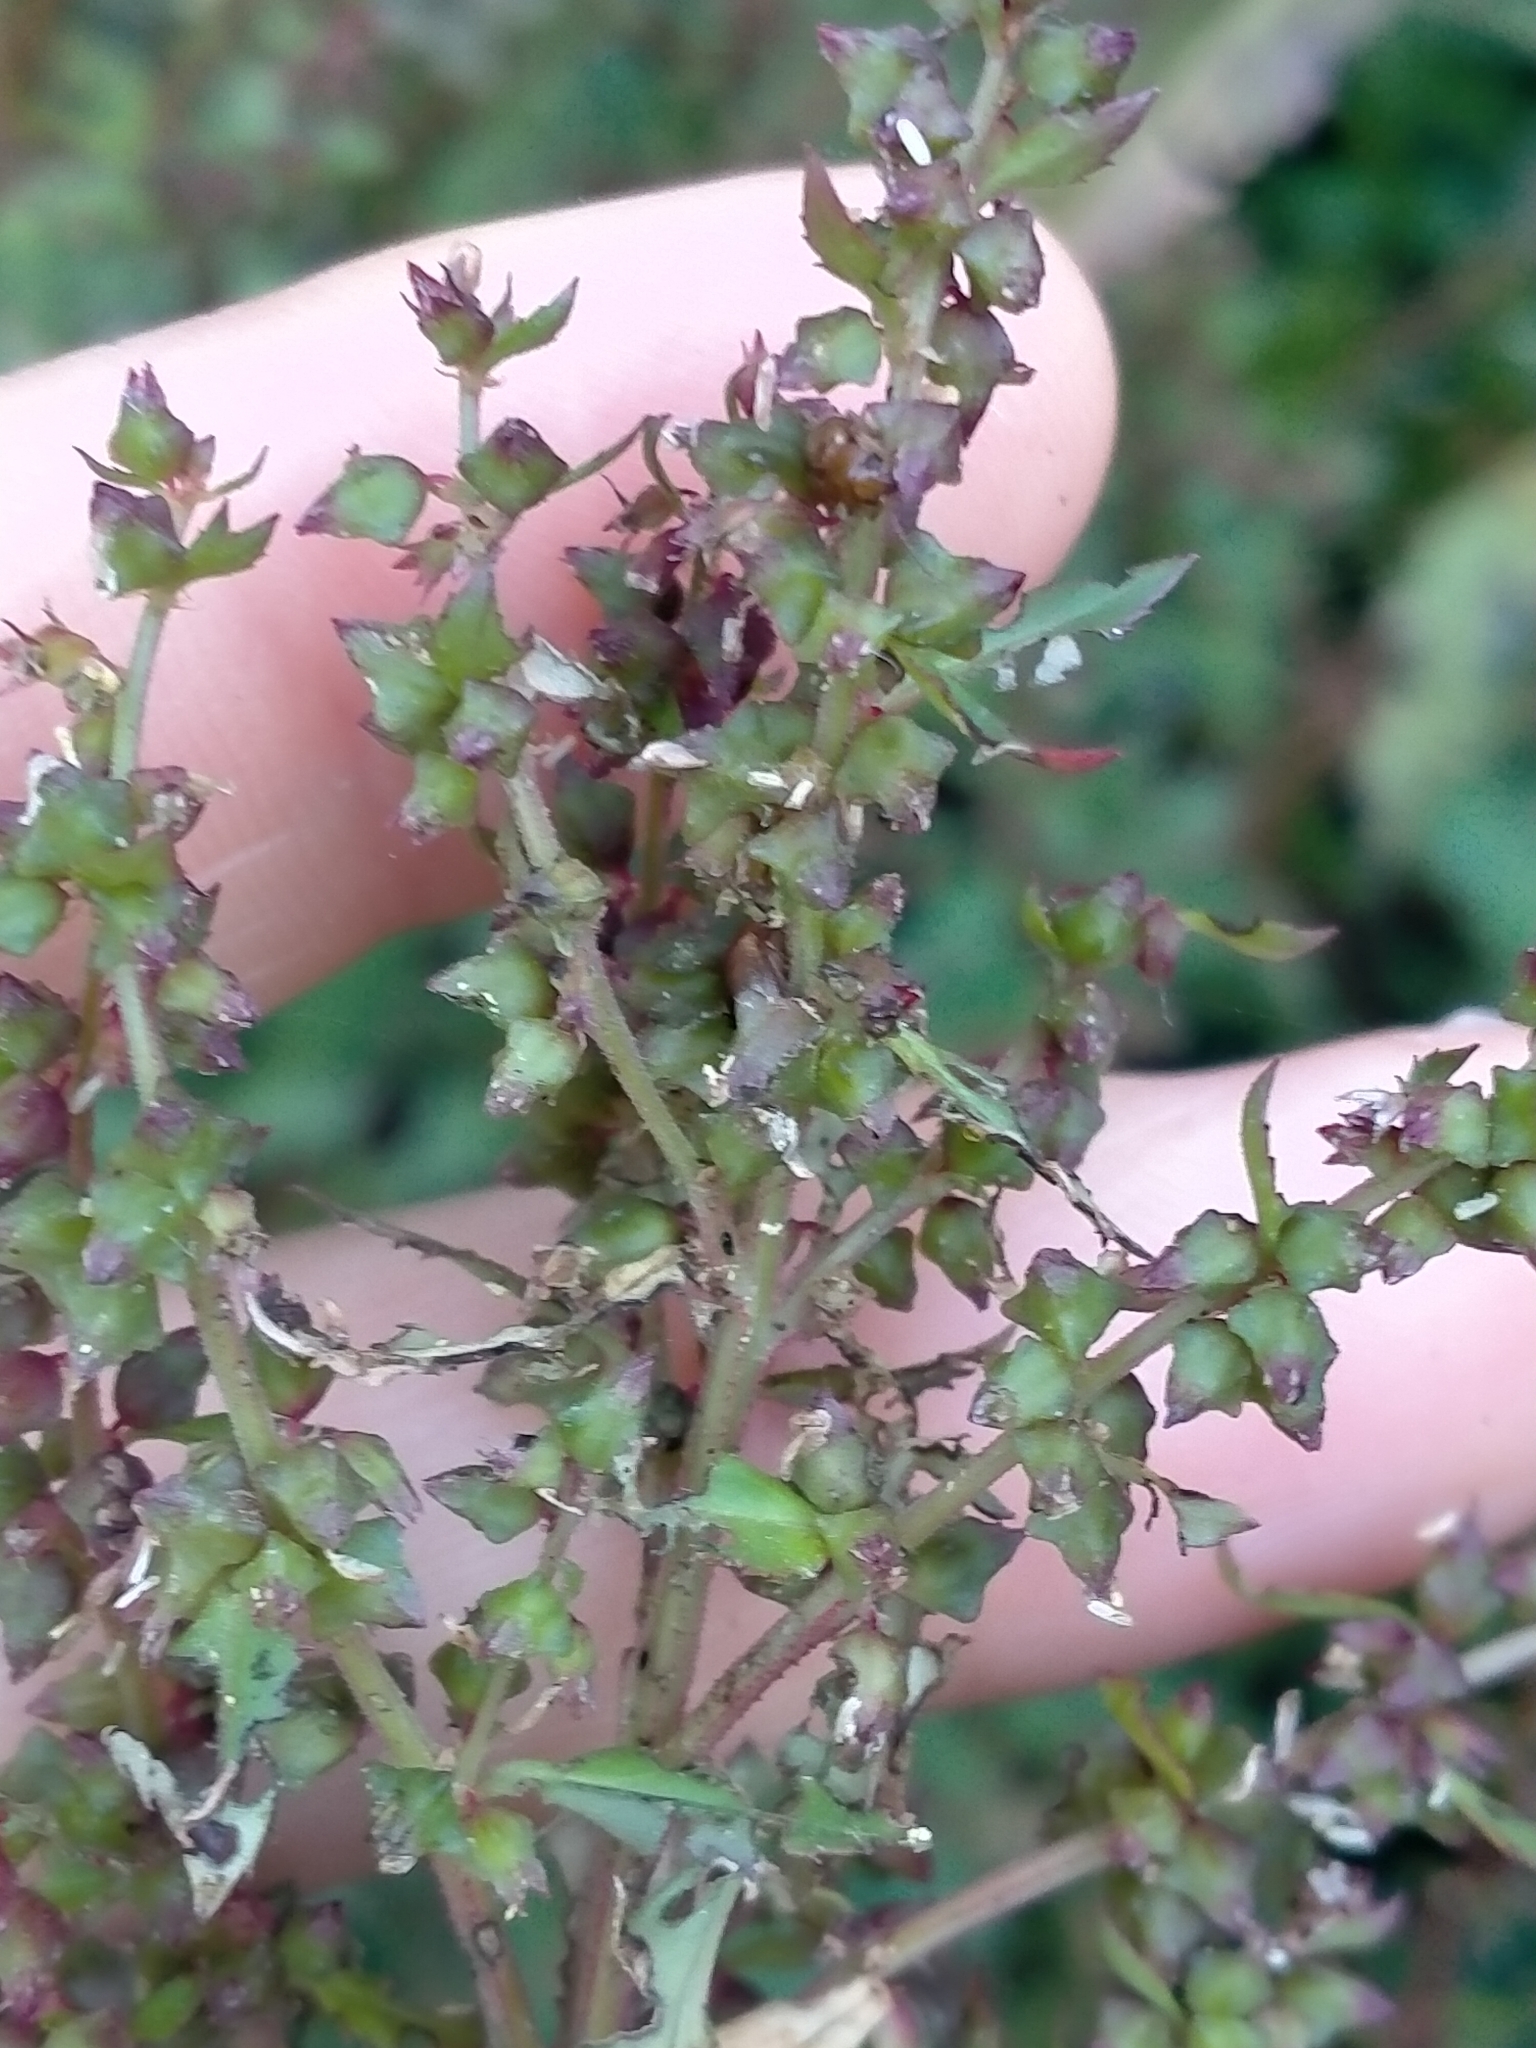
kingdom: Plantae
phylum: Tracheophyta
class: Magnoliopsida
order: Saxifragales
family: Haloragaceae
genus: Haloragis
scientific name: Haloragis erecta
